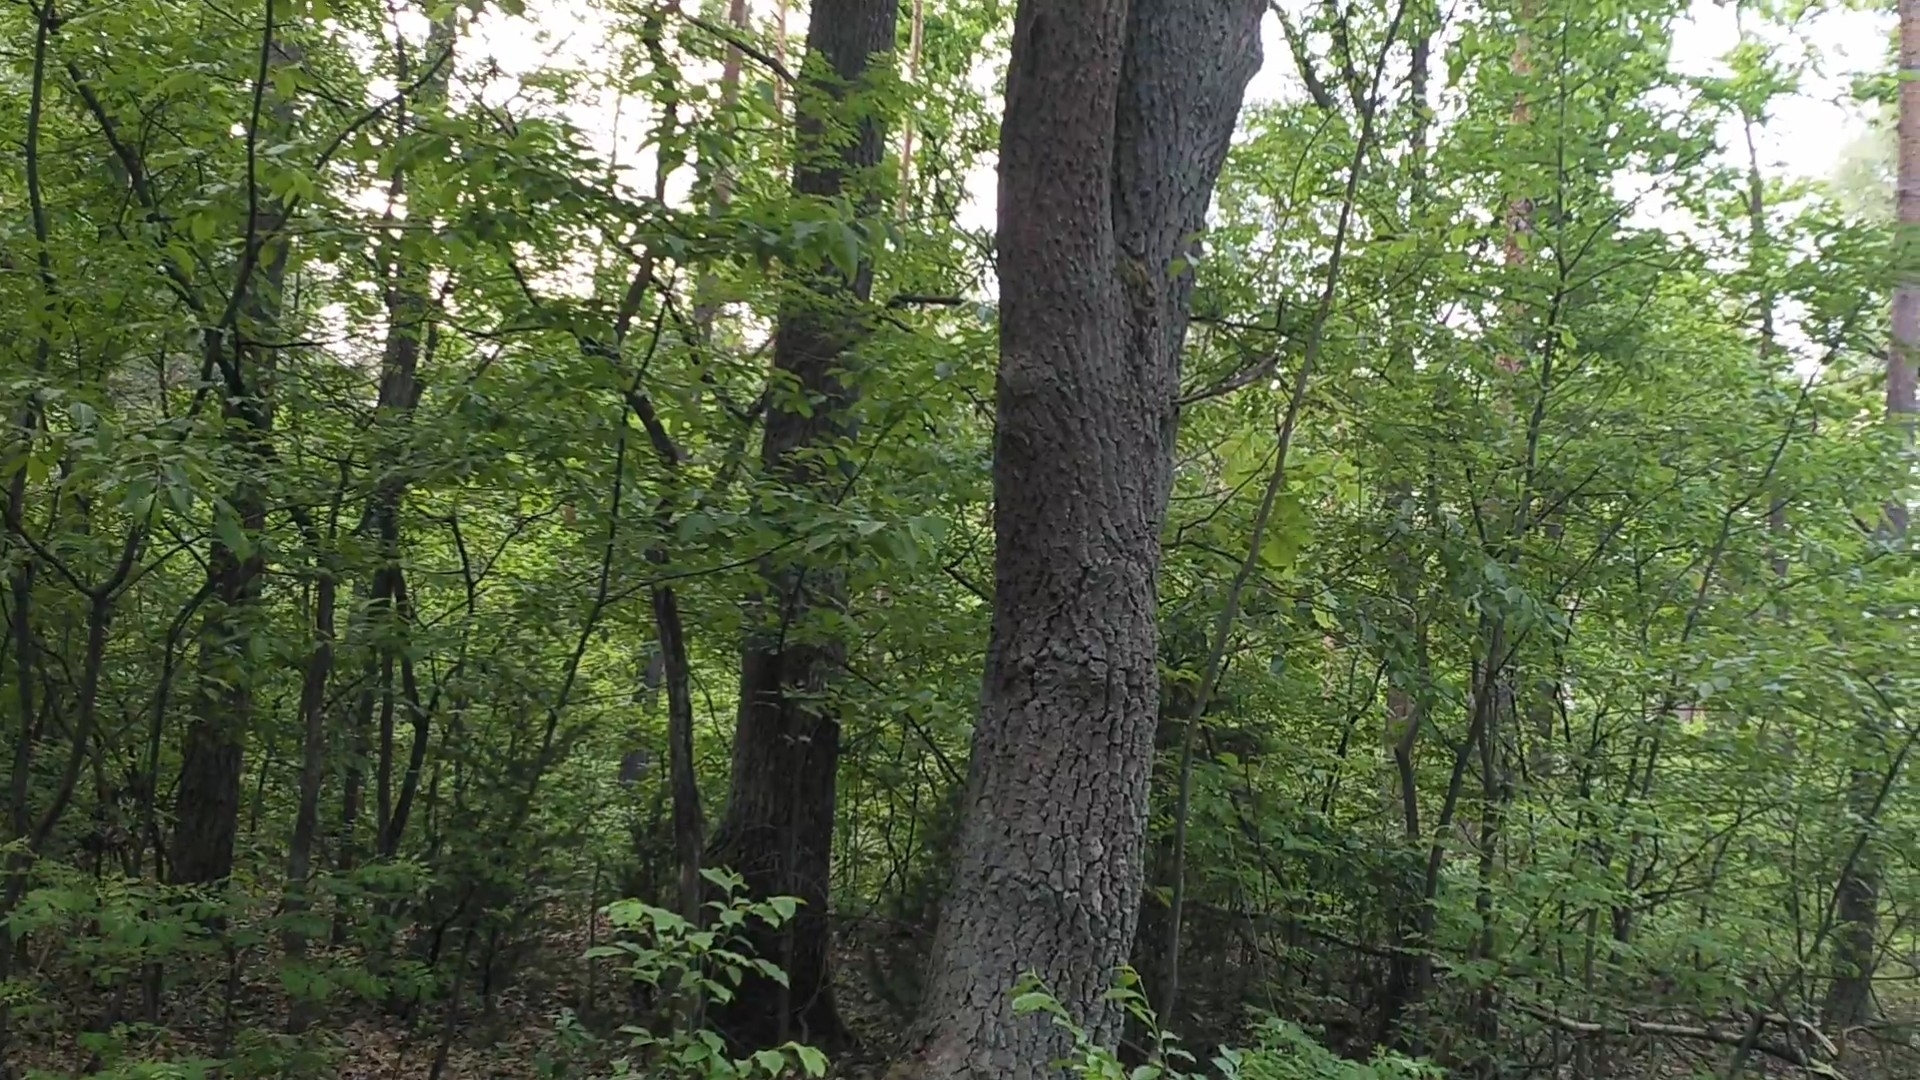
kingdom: Animalia
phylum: Chordata
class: Aves
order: Cuculiformes
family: Cuculidae
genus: Cuculus
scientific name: Cuculus canorus
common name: Common cuckoo
